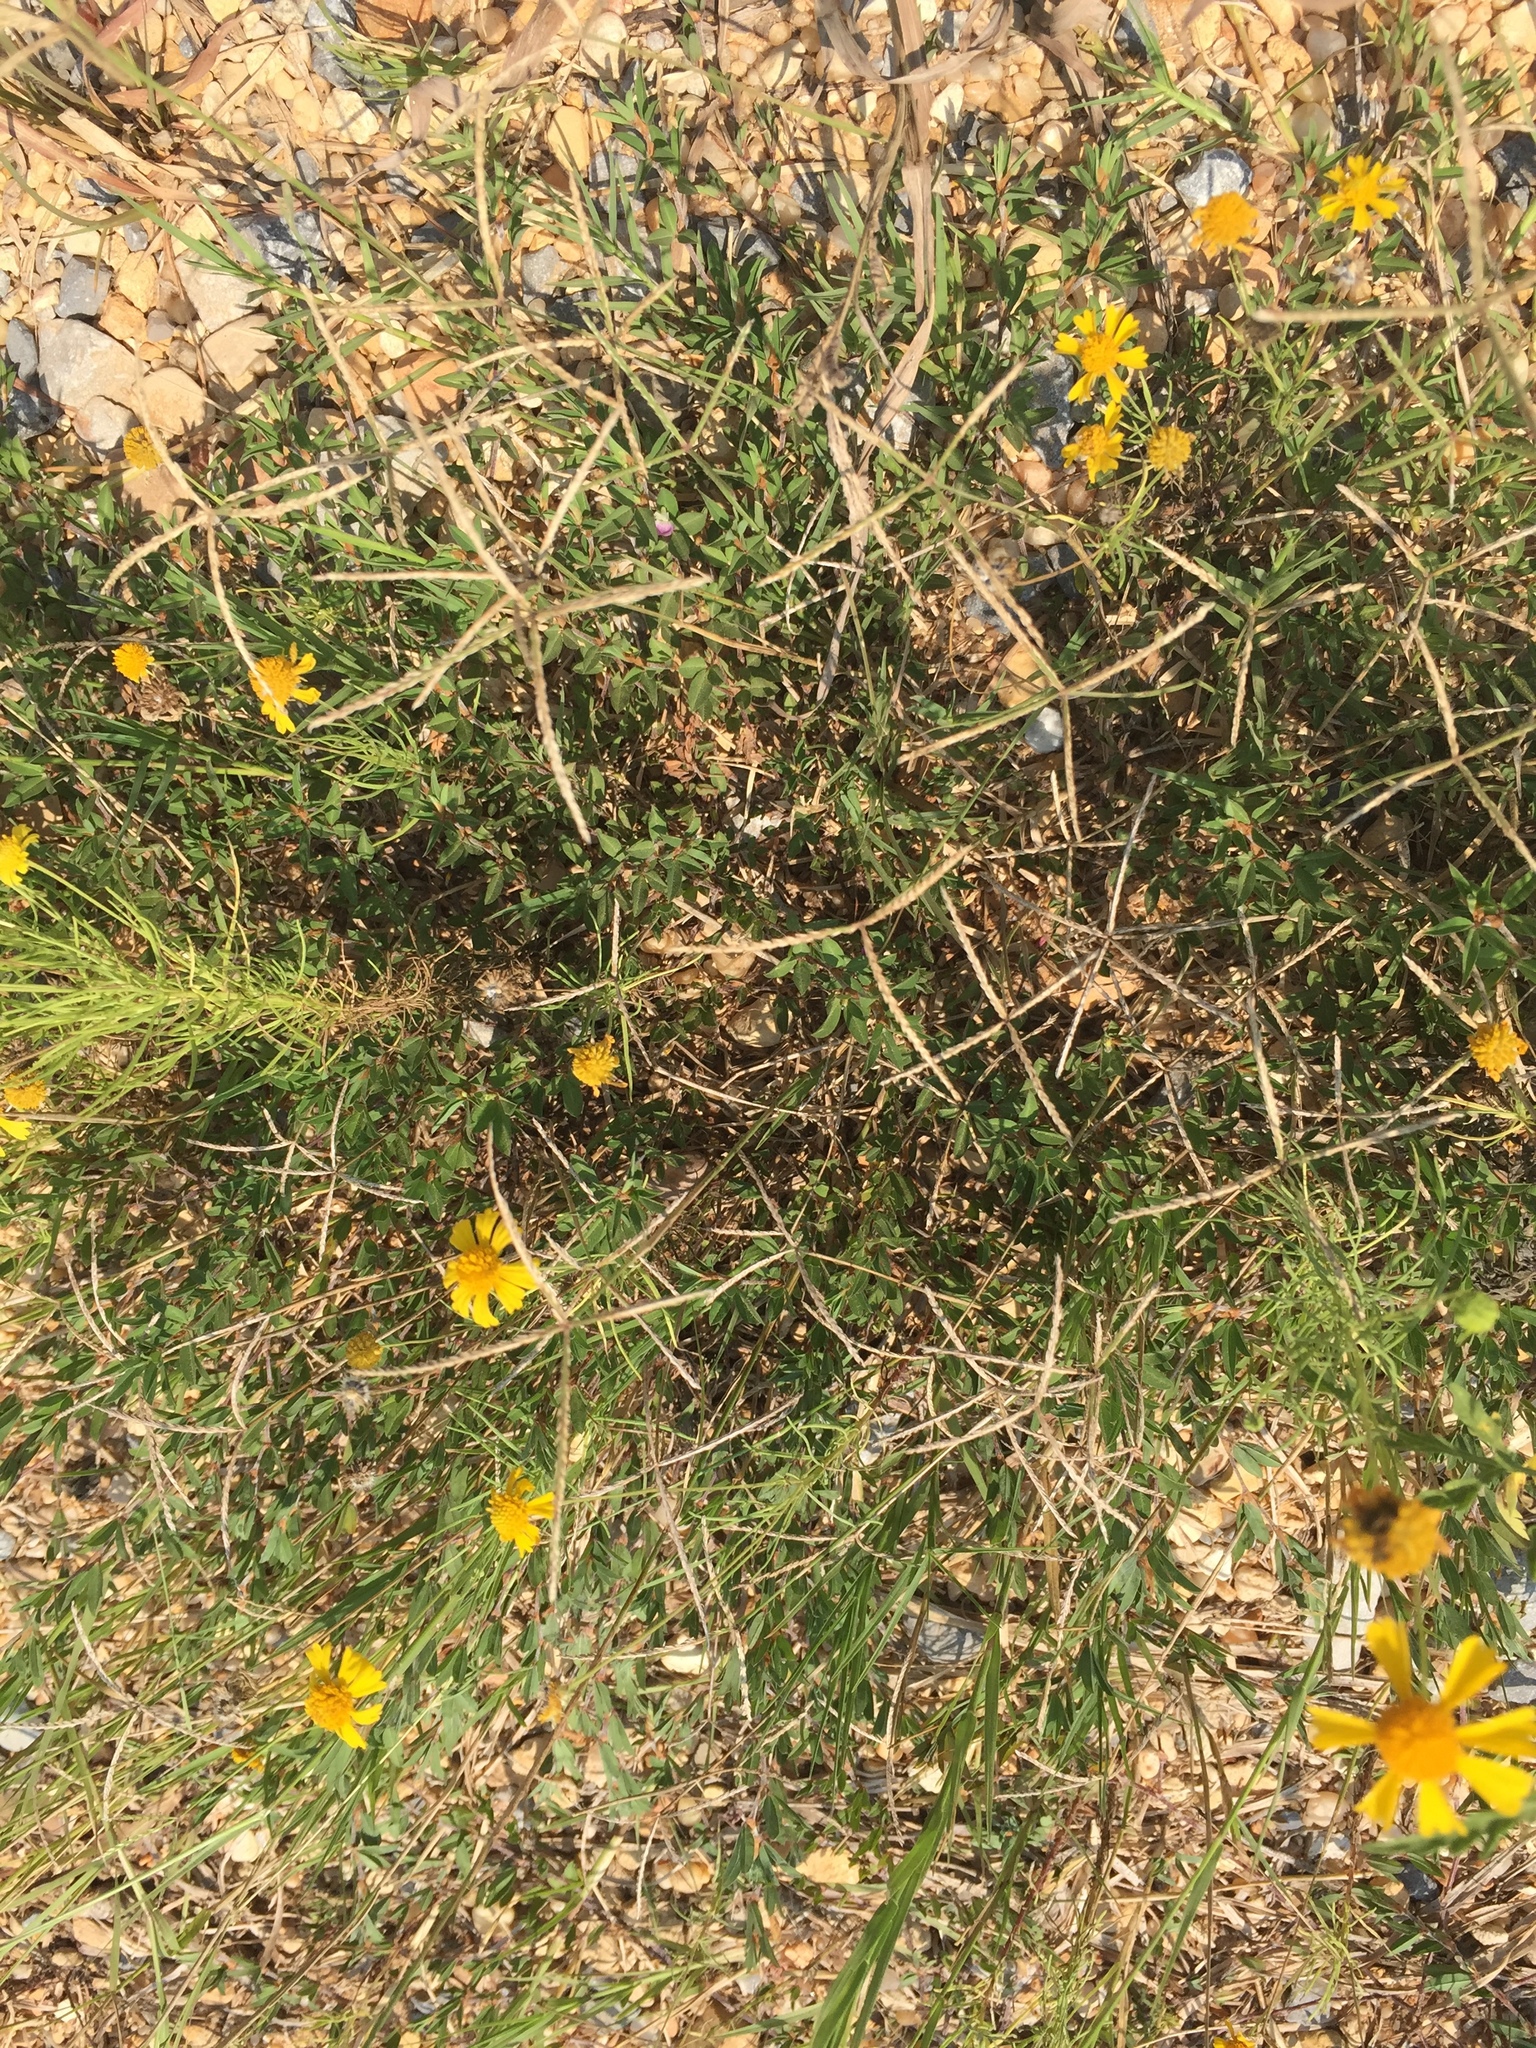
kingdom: Plantae
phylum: Tracheophyta
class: Liliopsida
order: Poales
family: Poaceae
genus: Cynodon
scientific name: Cynodon dactylon
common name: Bermuda grass
